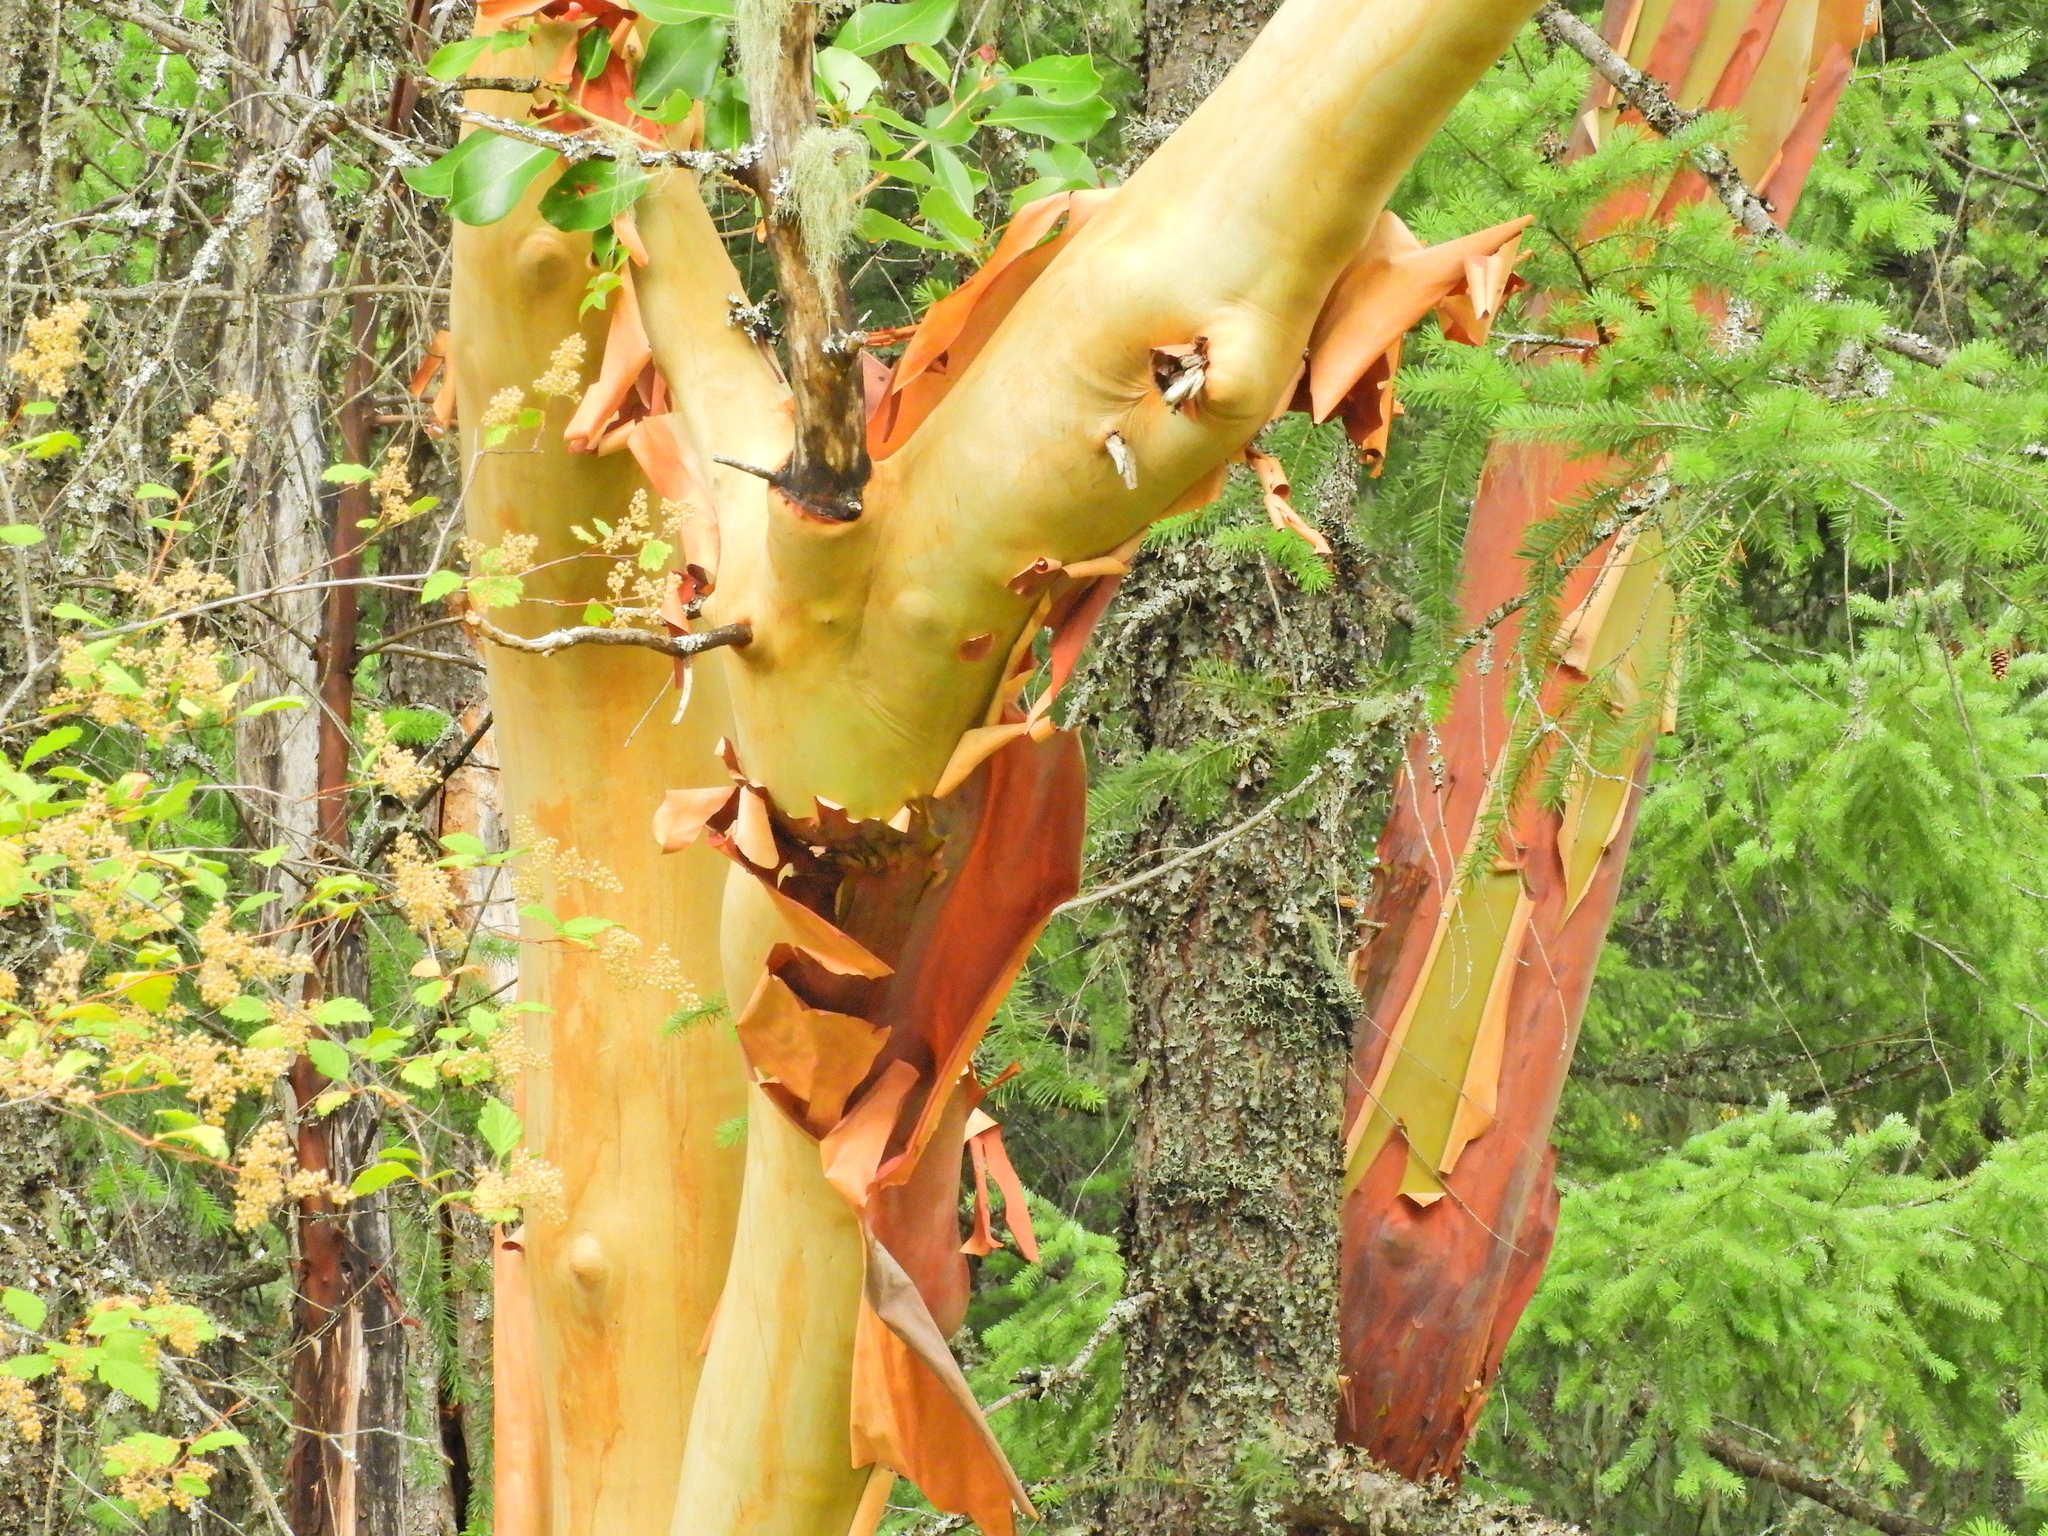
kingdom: Plantae
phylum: Tracheophyta
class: Magnoliopsida
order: Ericales
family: Ericaceae
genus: Arbutus
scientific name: Arbutus menziesii
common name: Pacific madrone
